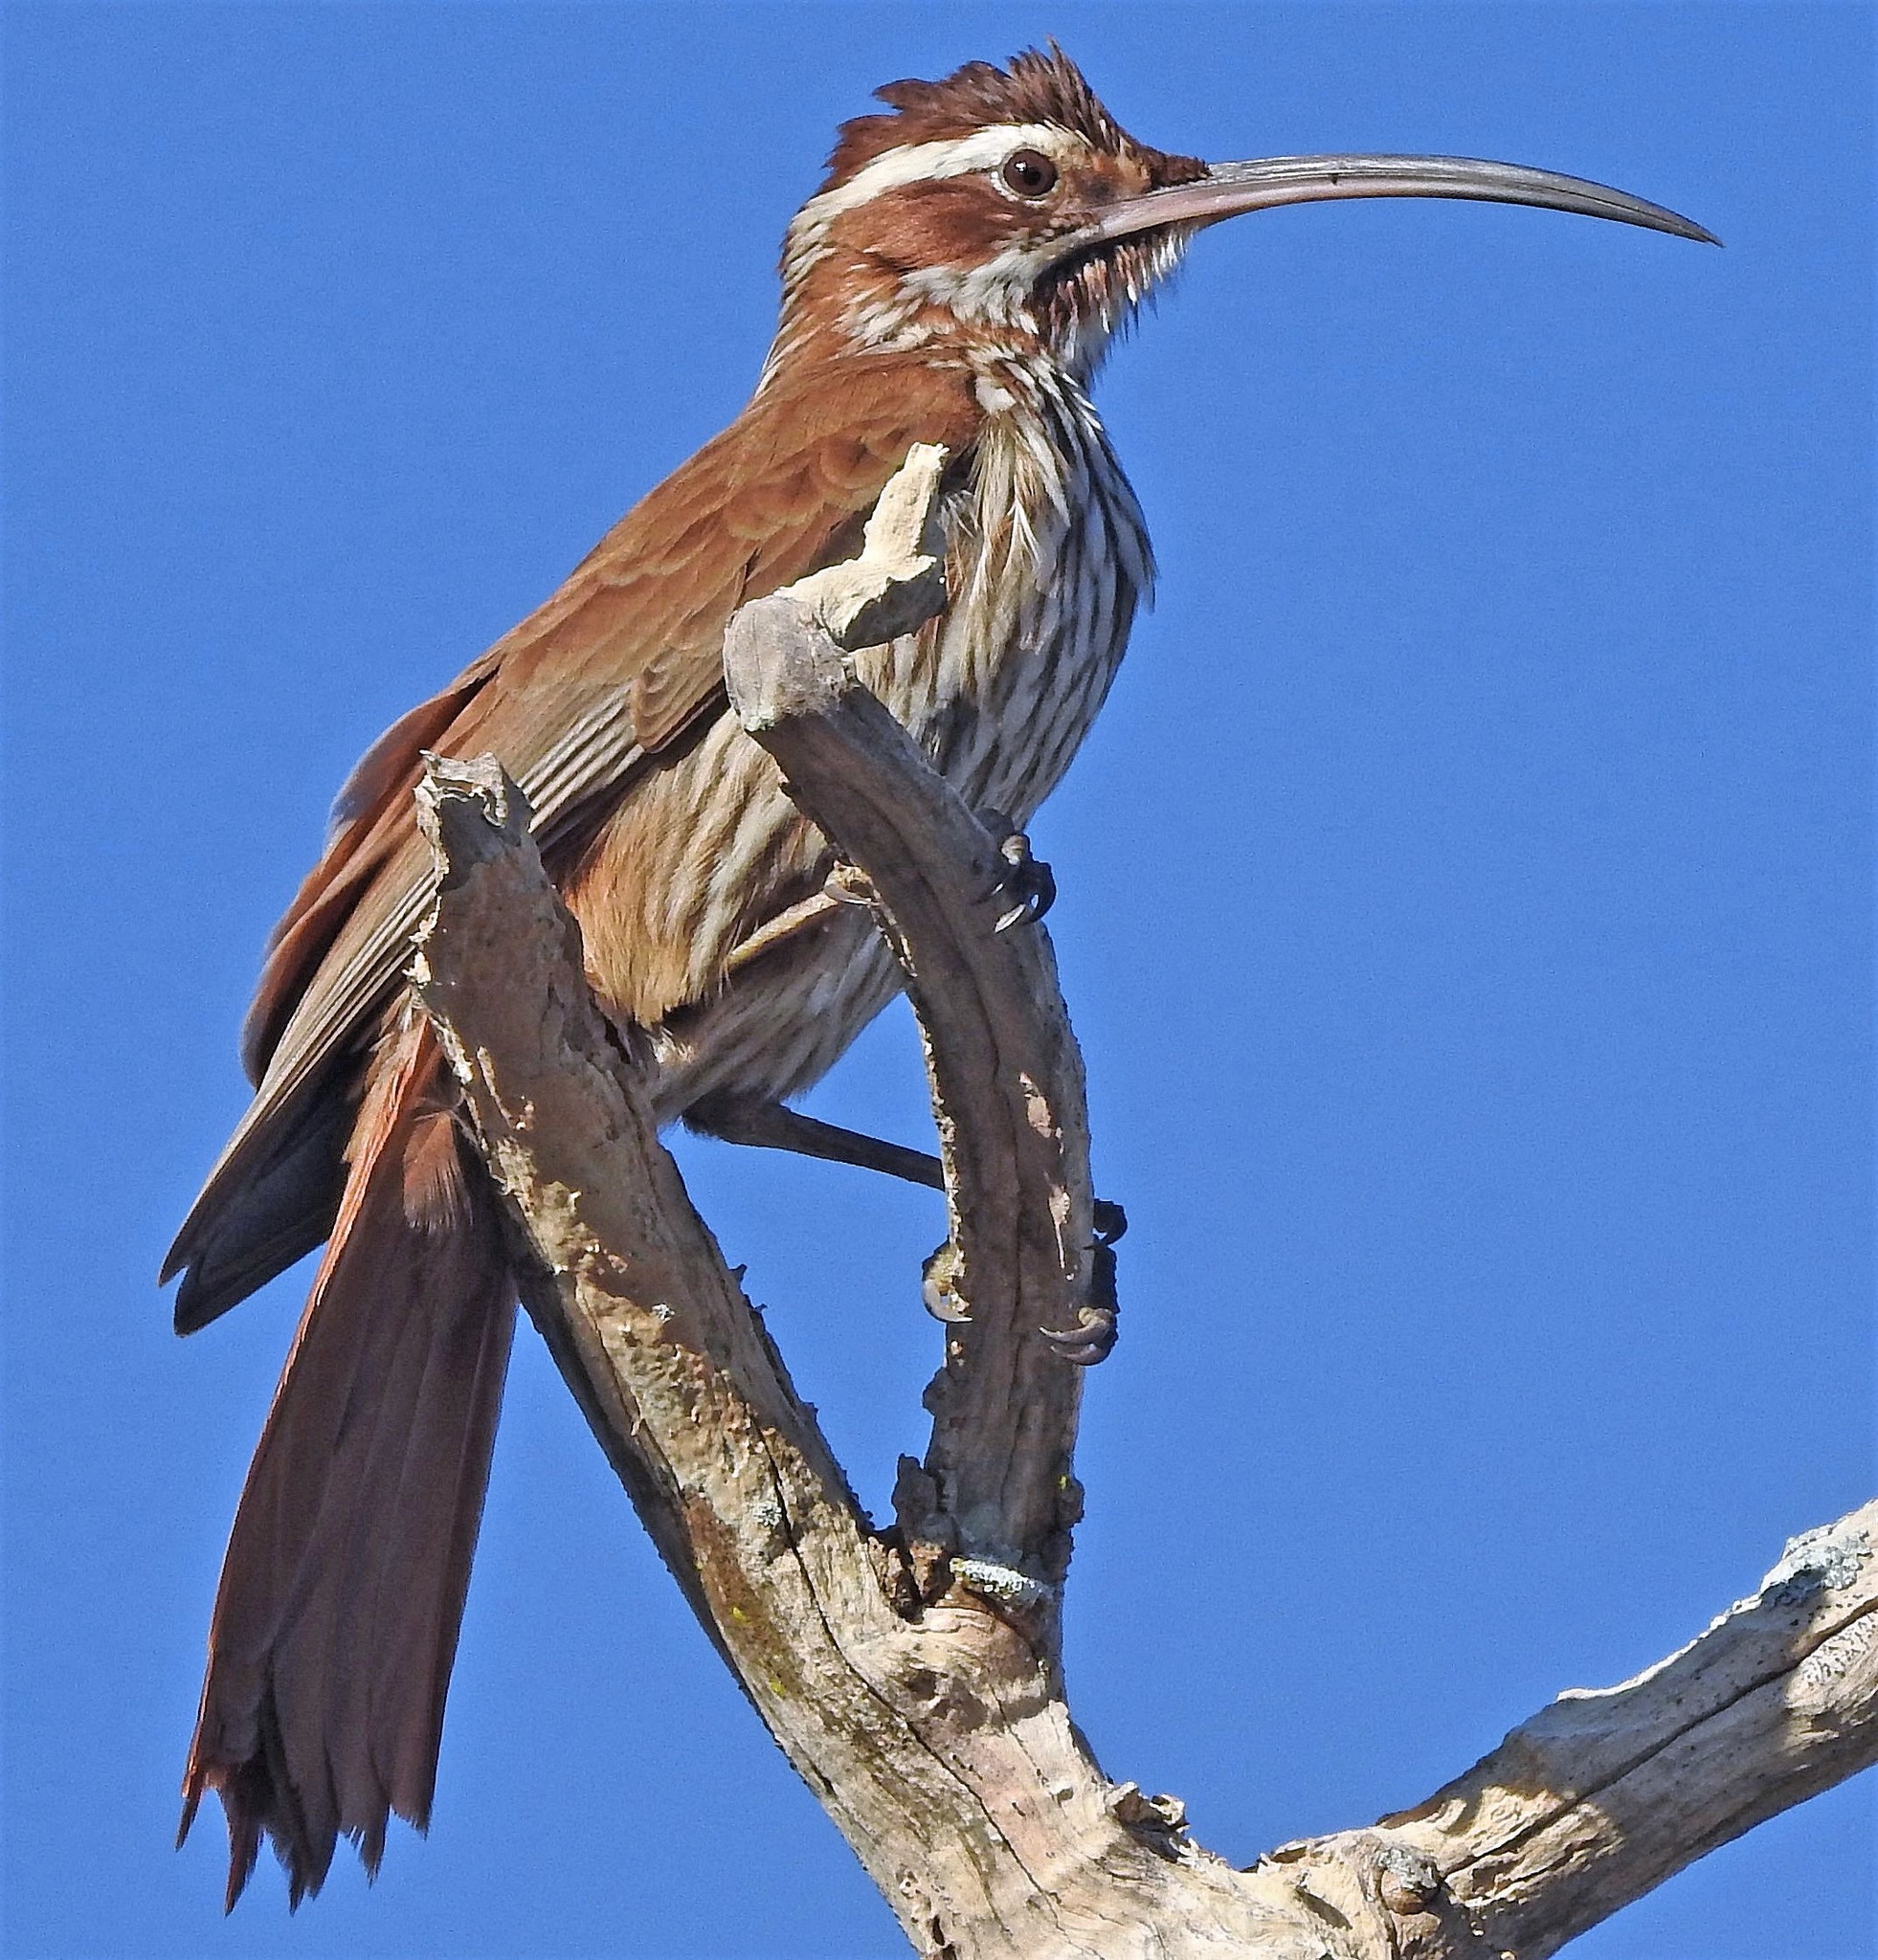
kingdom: Animalia
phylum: Chordata
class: Aves
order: Passeriformes
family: Furnariidae
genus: Drymornis
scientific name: Drymornis bridgesii
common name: Scimitar-billed woodcreeper
